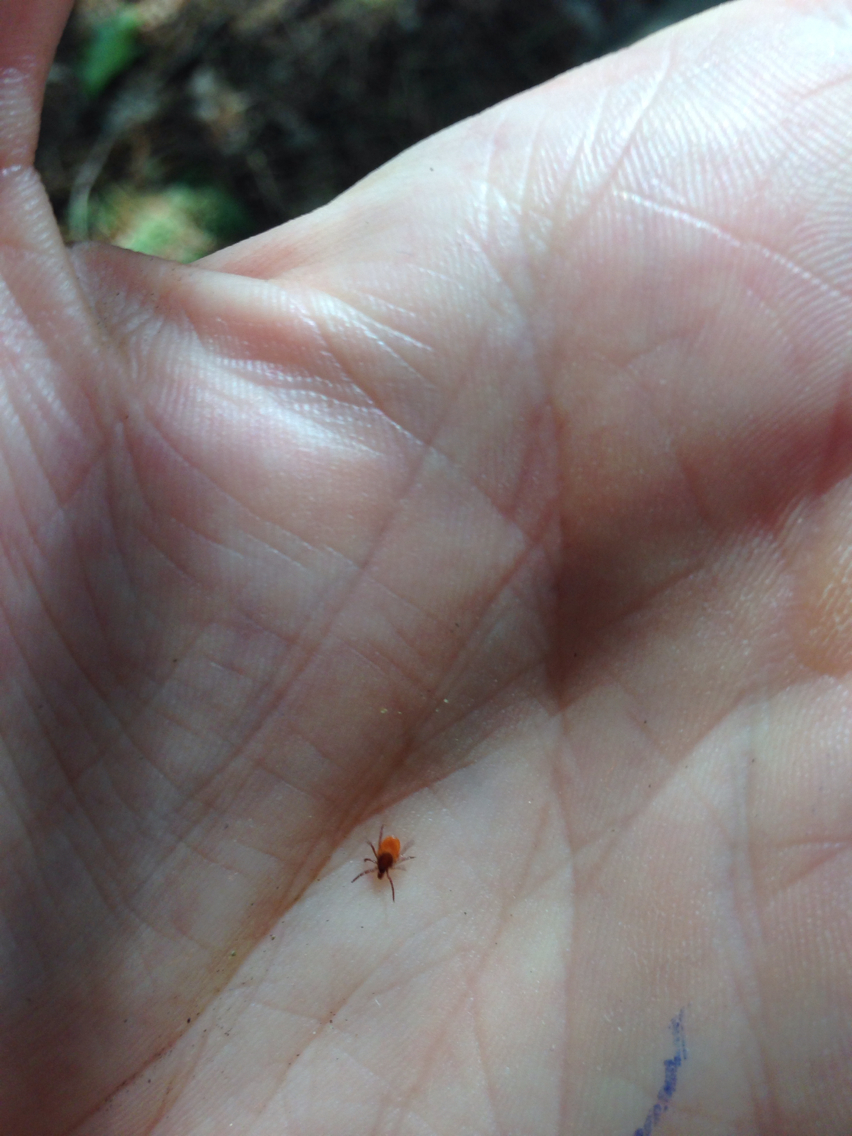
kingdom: Animalia
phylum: Arthropoda
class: Arachnida
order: Ixodida
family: Ixodidae
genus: Ixodes
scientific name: Ixodes scapularis
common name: Black legged tick
